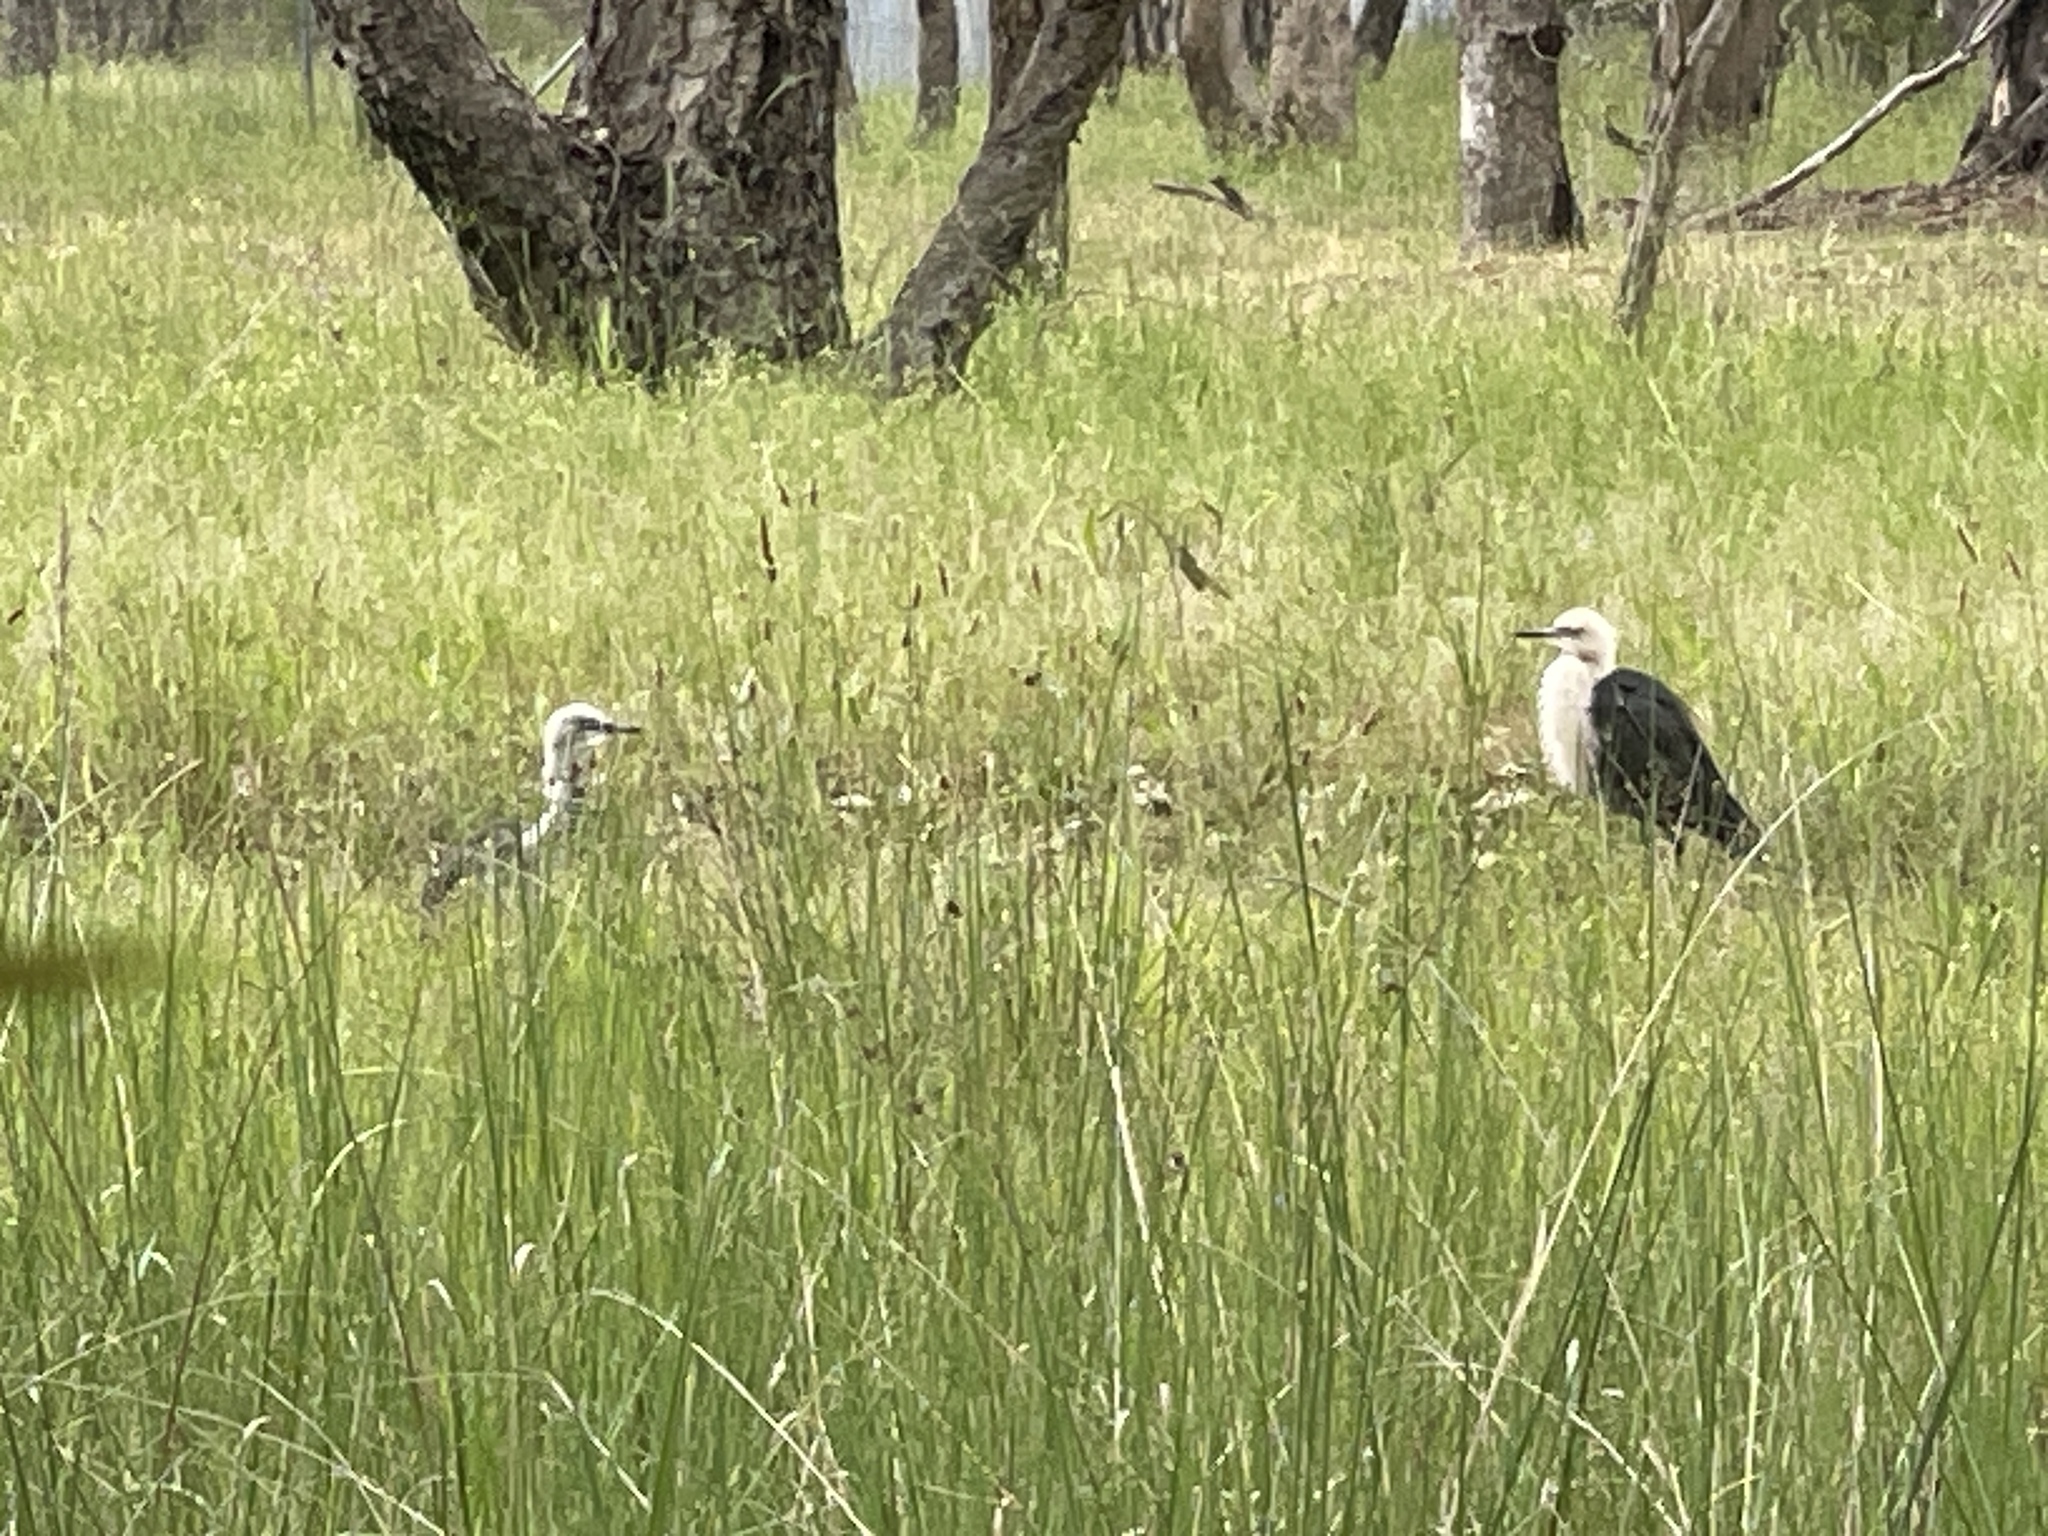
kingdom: Animalia
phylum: Chordata
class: Aves
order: Pelecaniformes
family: Ardeidae
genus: Ardea
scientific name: Ardea pacifica
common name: White-necked heron
